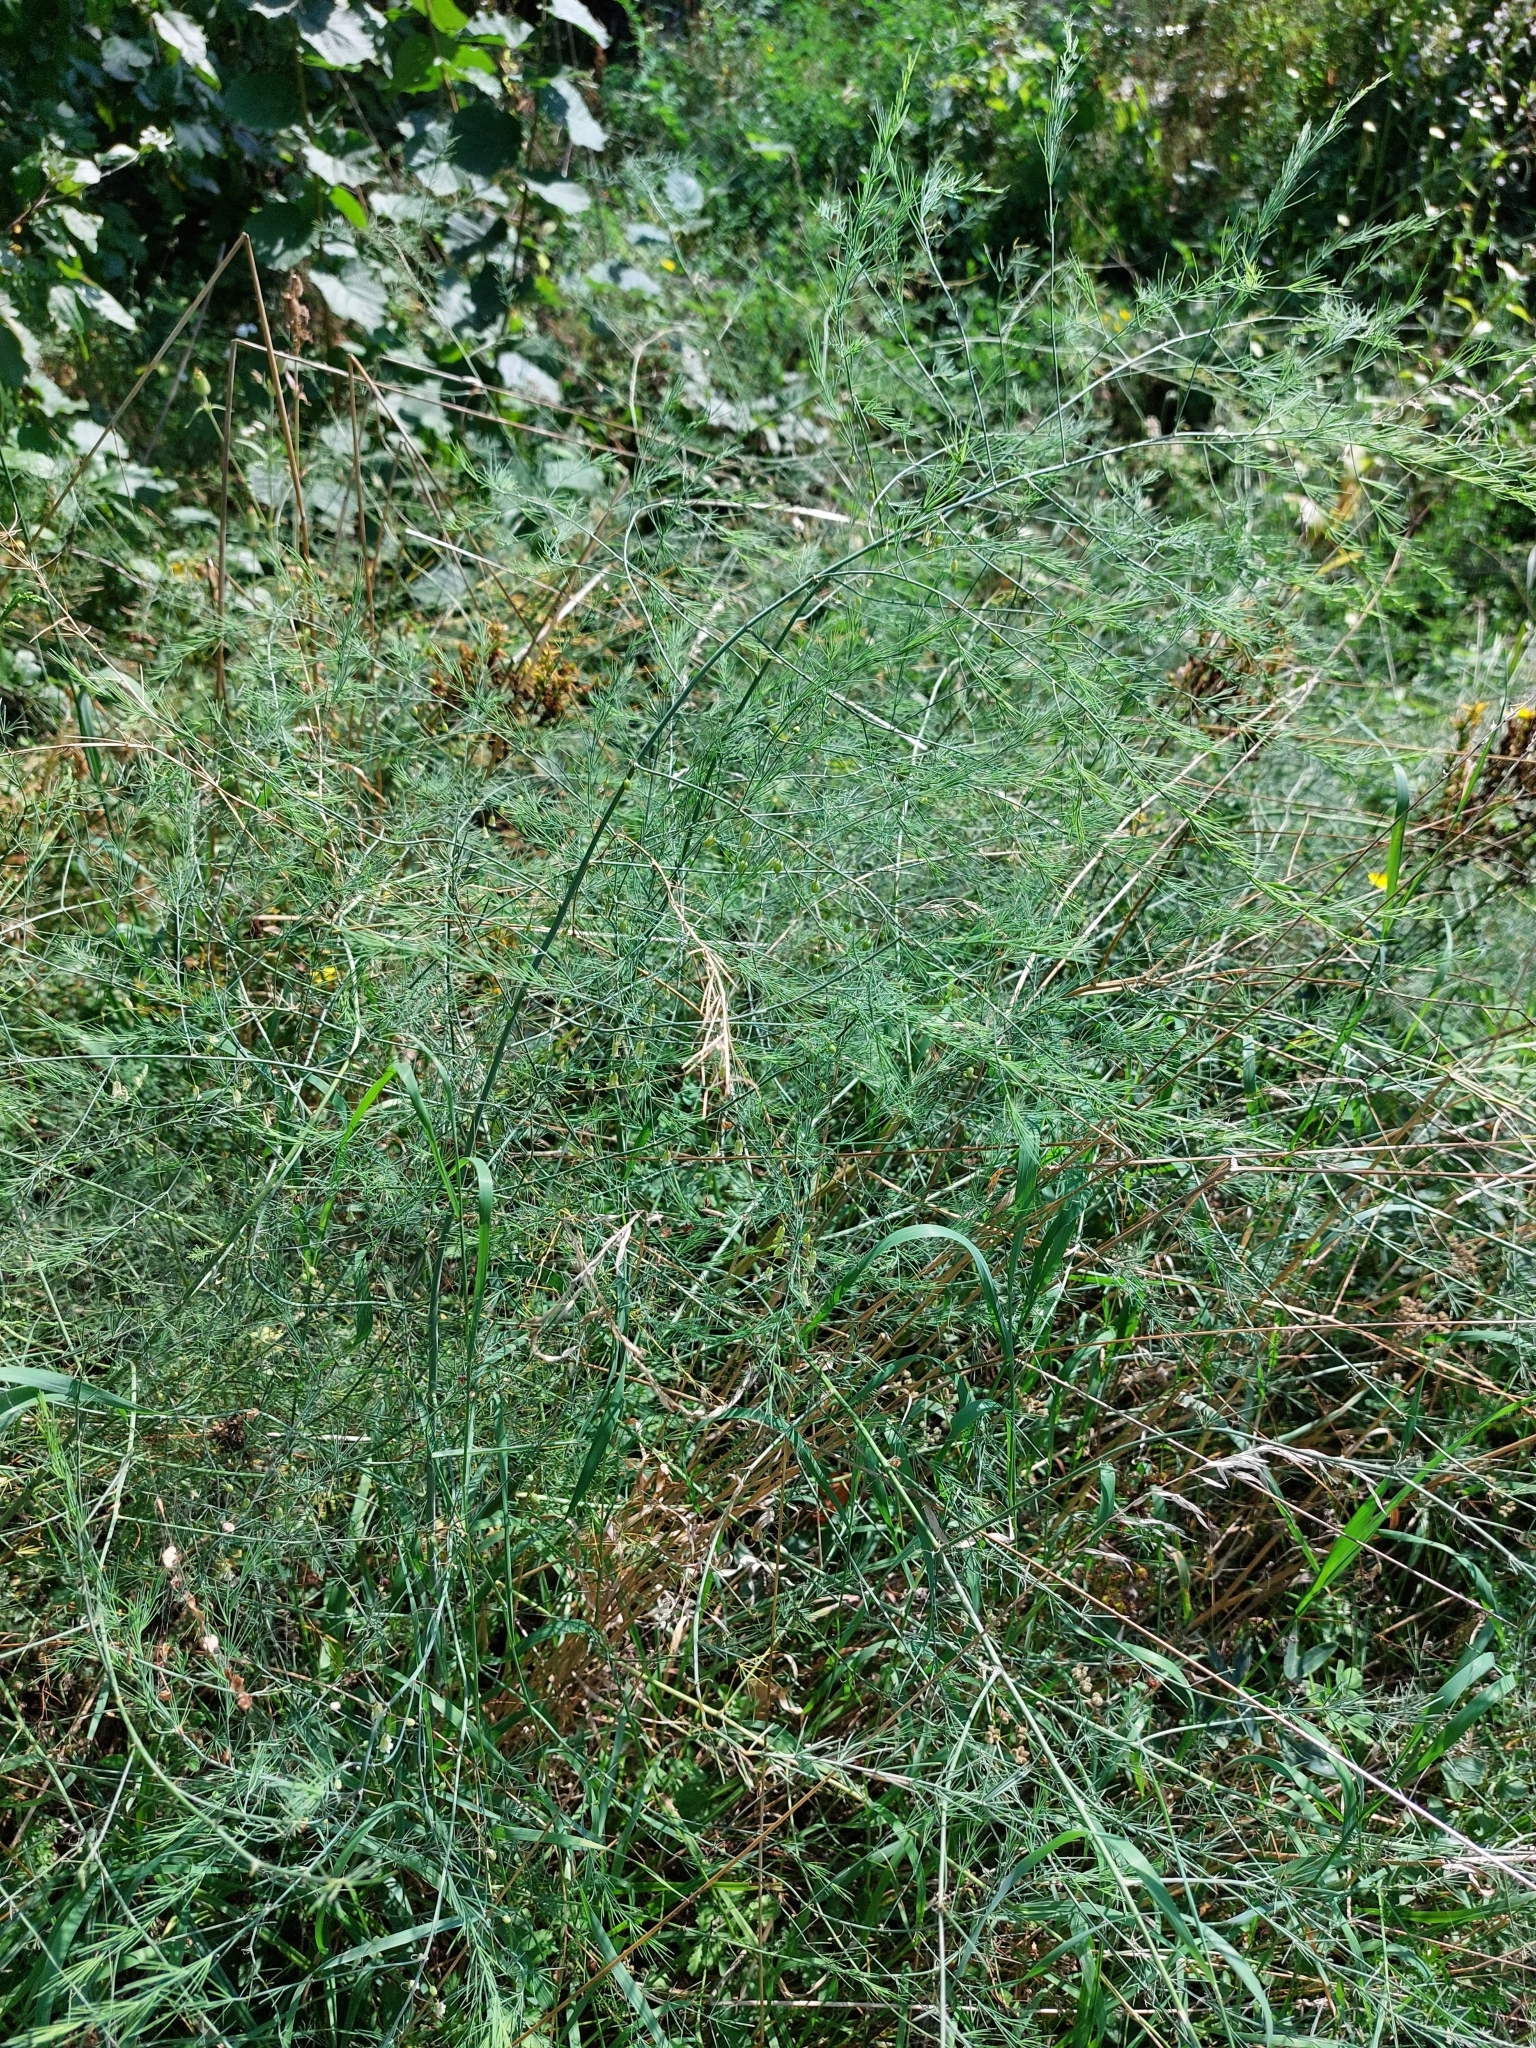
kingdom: Plantae
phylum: Tracheophyta
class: Liliopsida
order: Asparagales
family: Asparagaceae
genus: Asparagus
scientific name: Asparagus officinalis
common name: Garden asparagus
